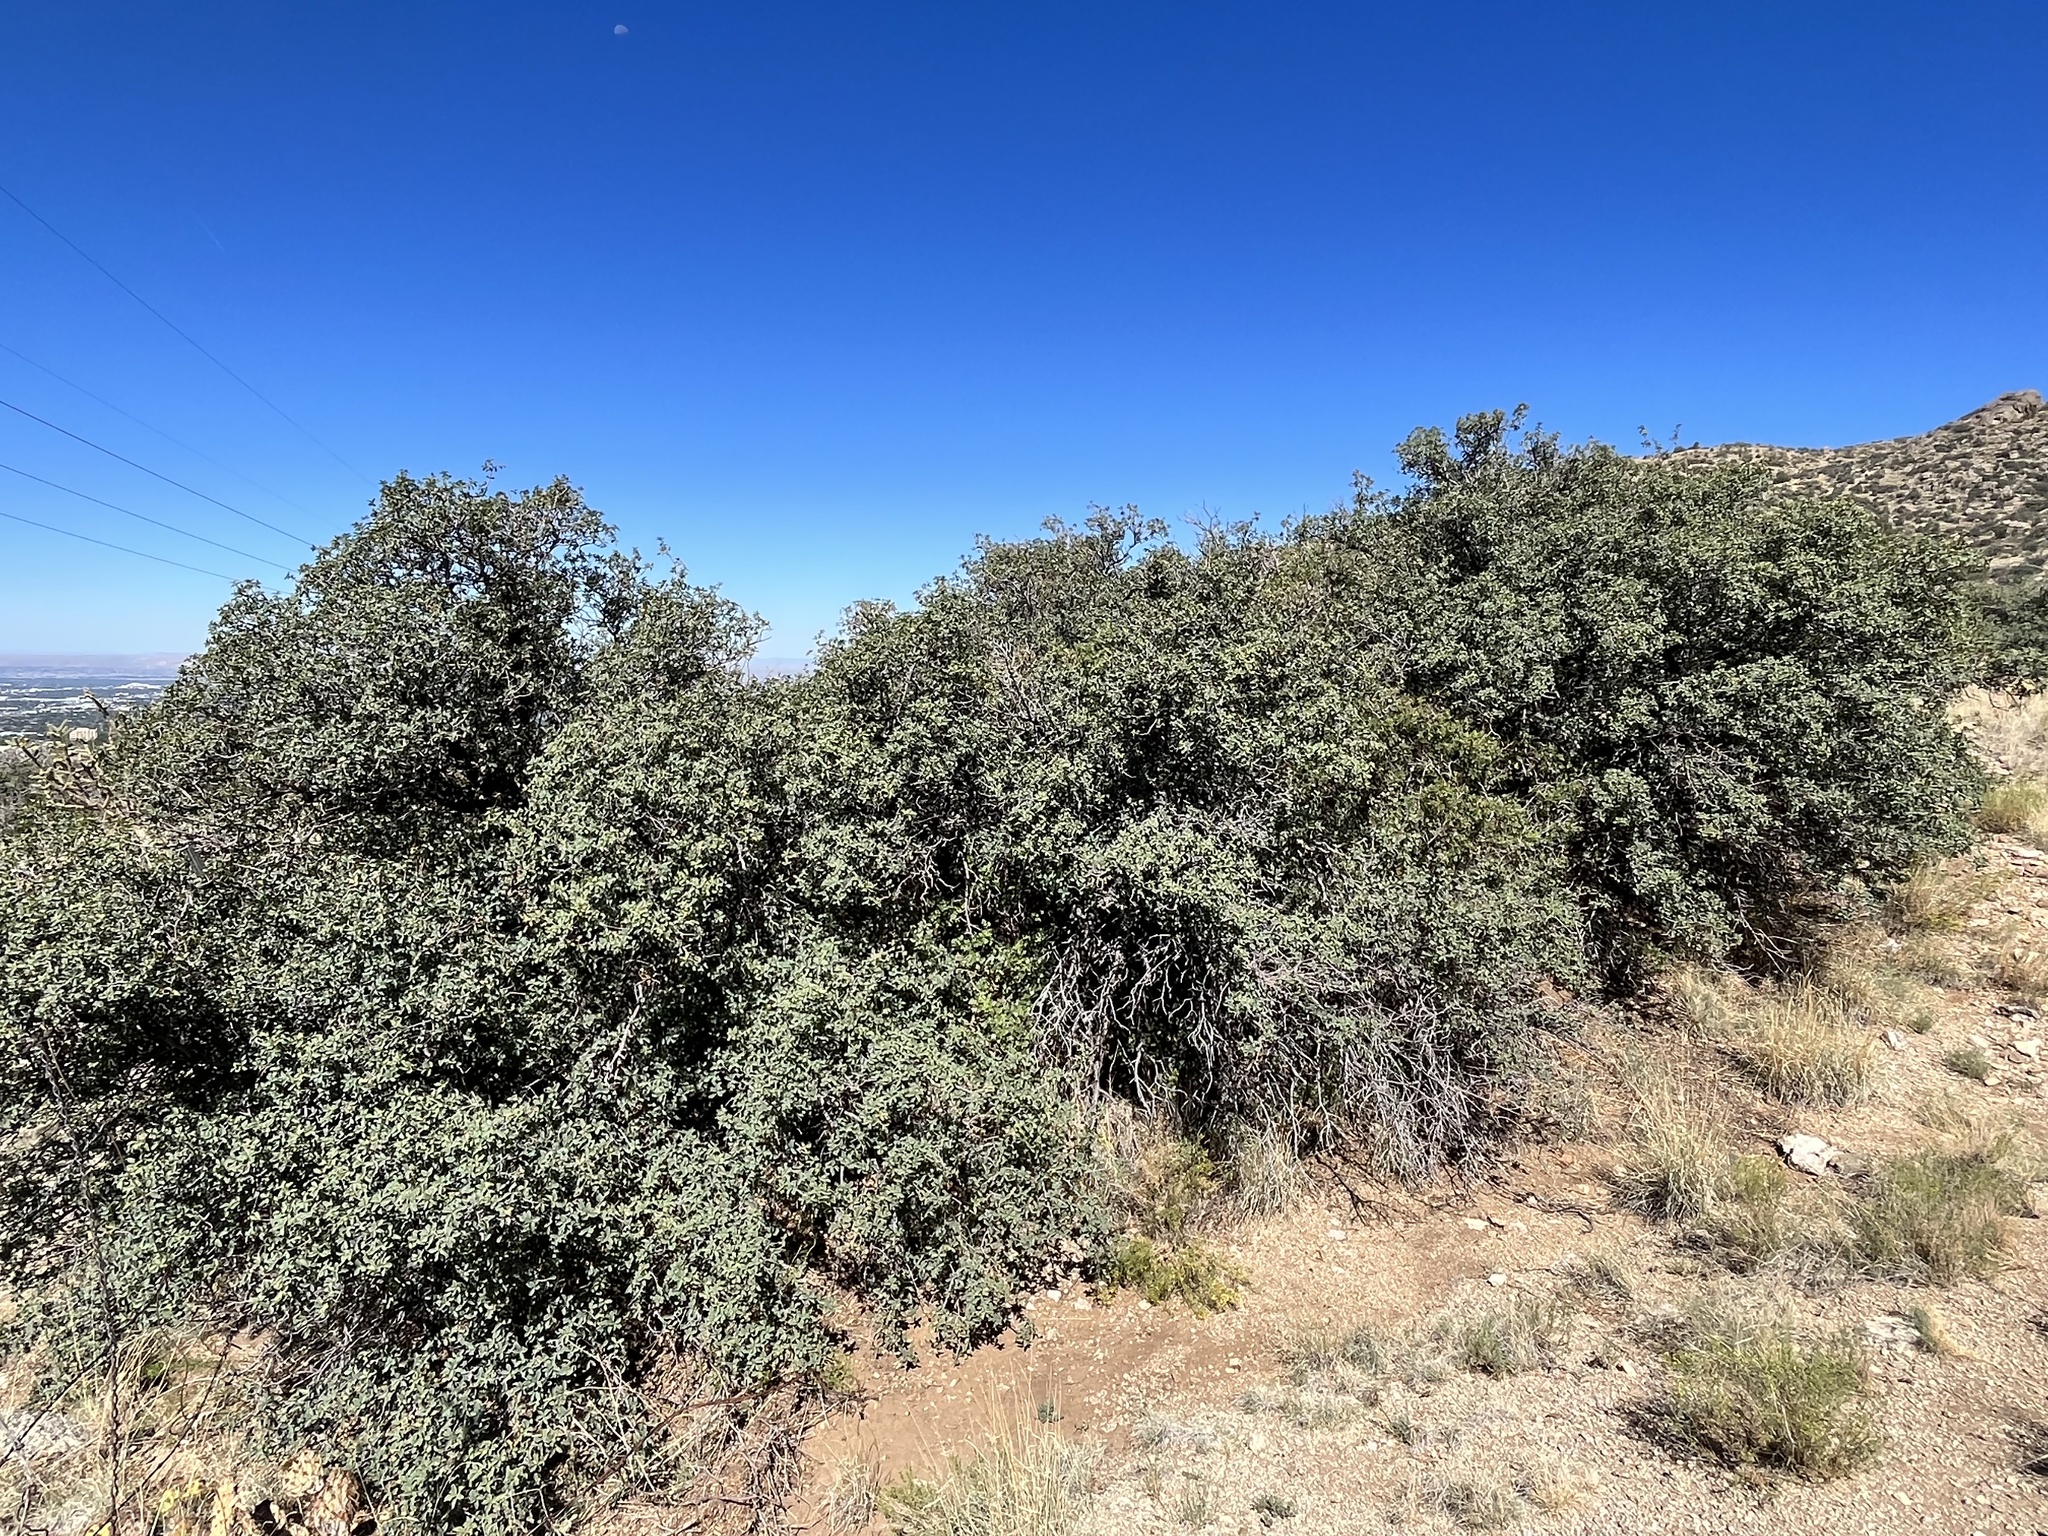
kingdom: Plantae
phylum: Tracheophyta
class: Magnoliopsida
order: Fagales
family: Fagaceae
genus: Quercus
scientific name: Quercus turbinella
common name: Sonoran scrub oak
